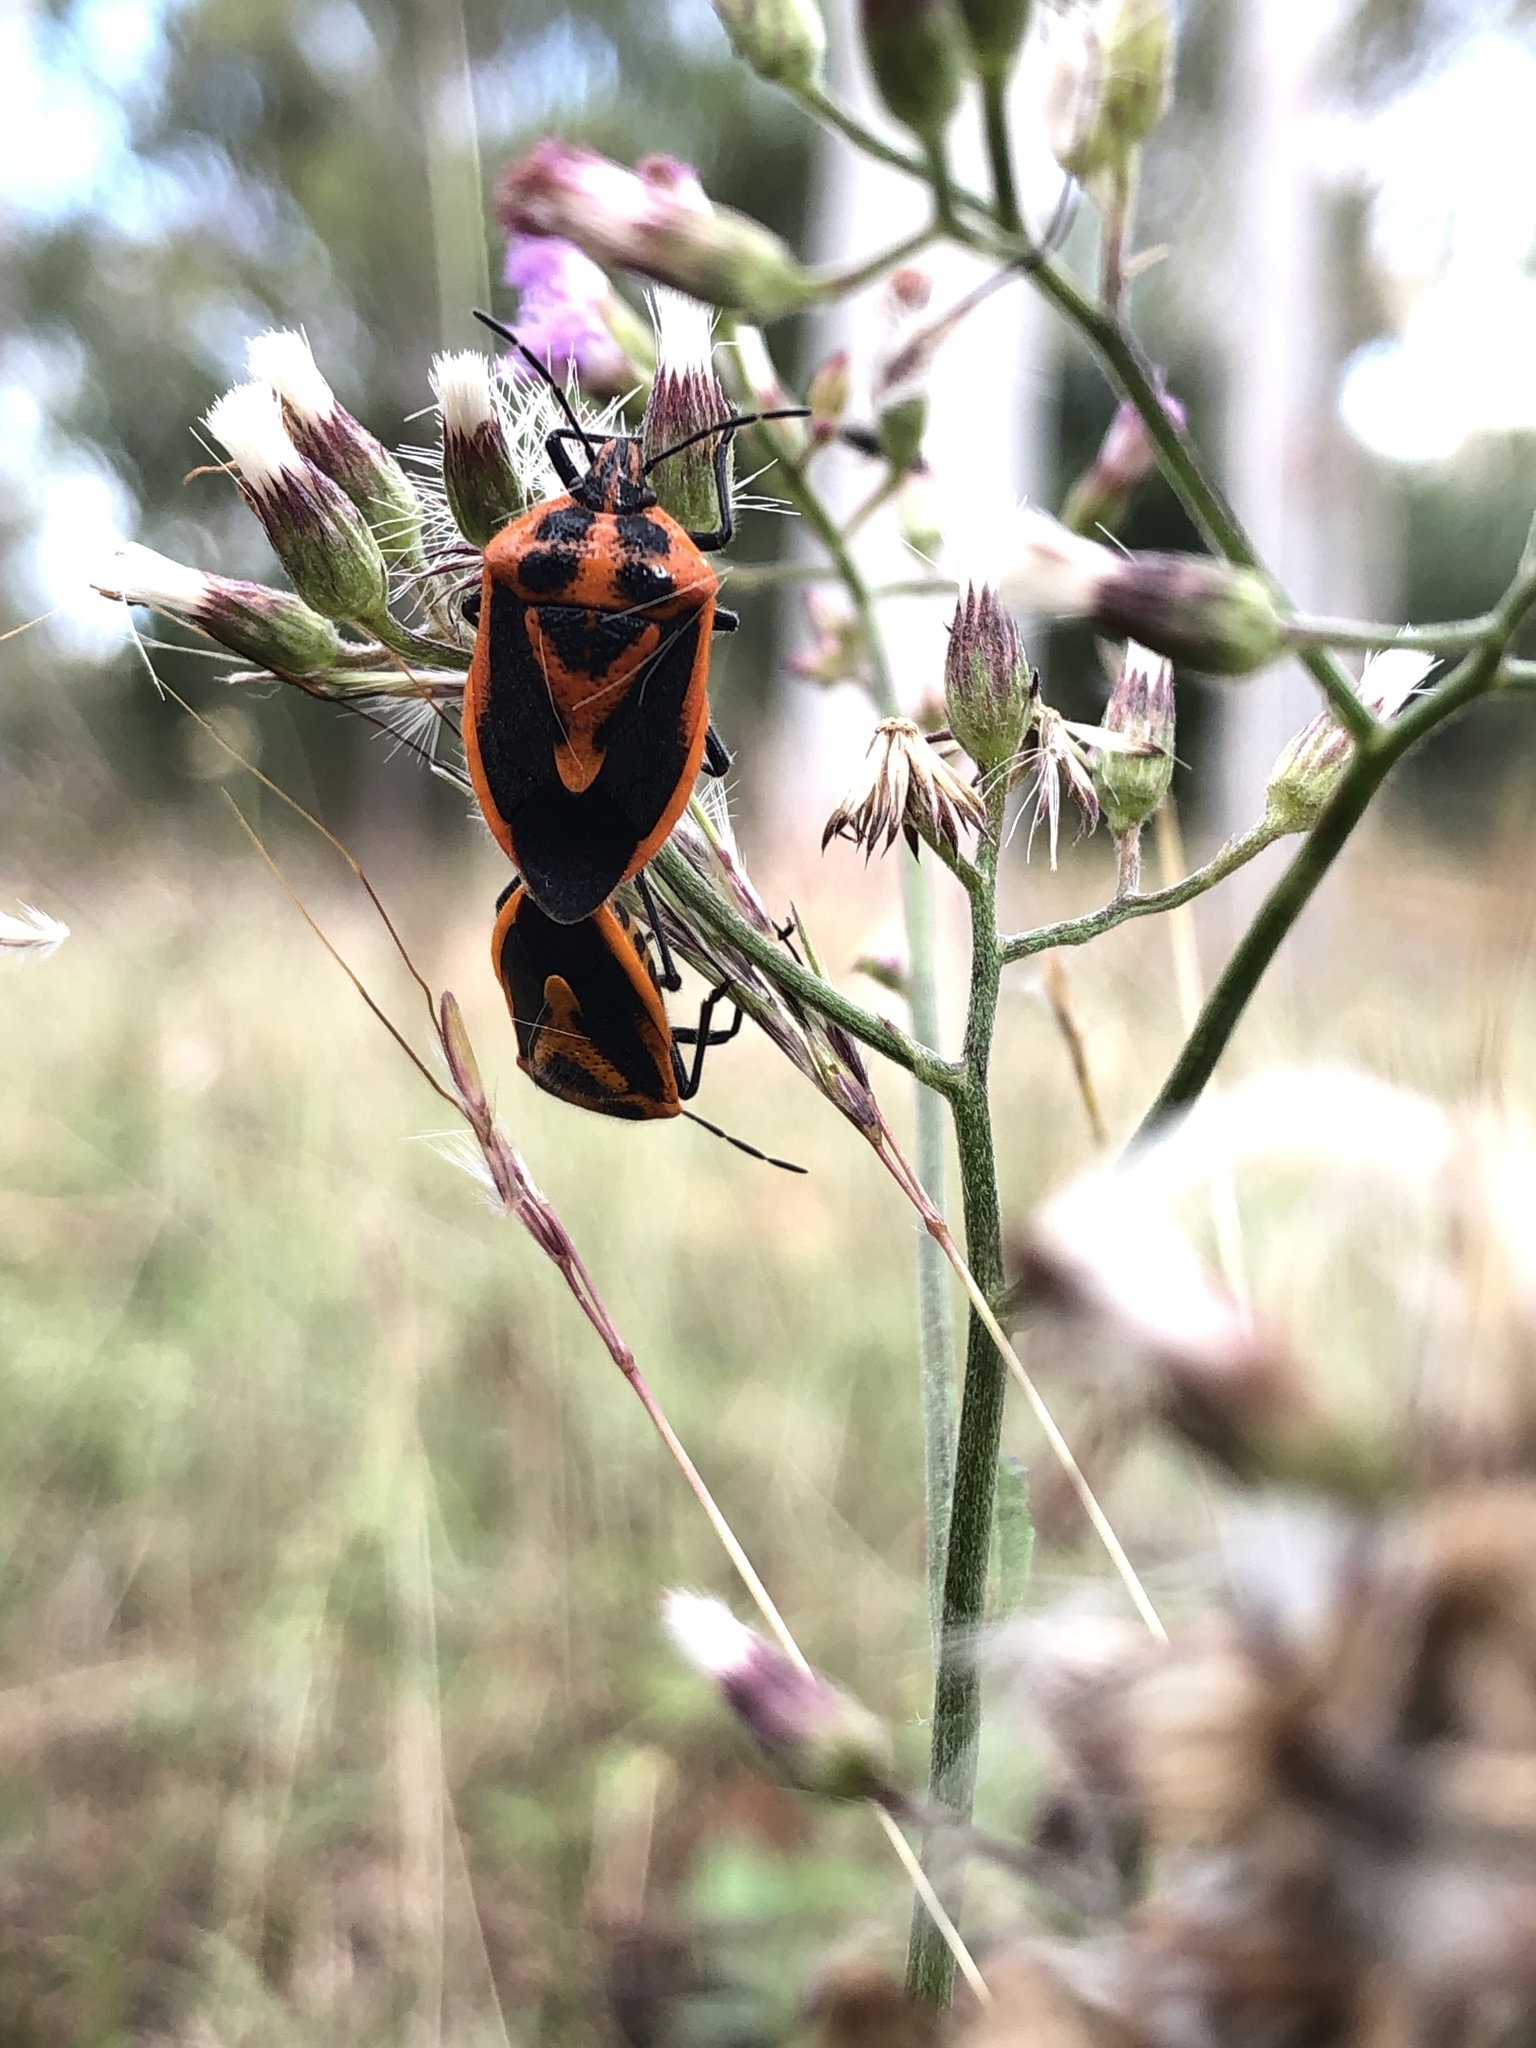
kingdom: Animalia
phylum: Arthropoda
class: Insecta
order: Hemiptera
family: Pentatomidae
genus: Agonoscelis
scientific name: Agonoscelis rutila
